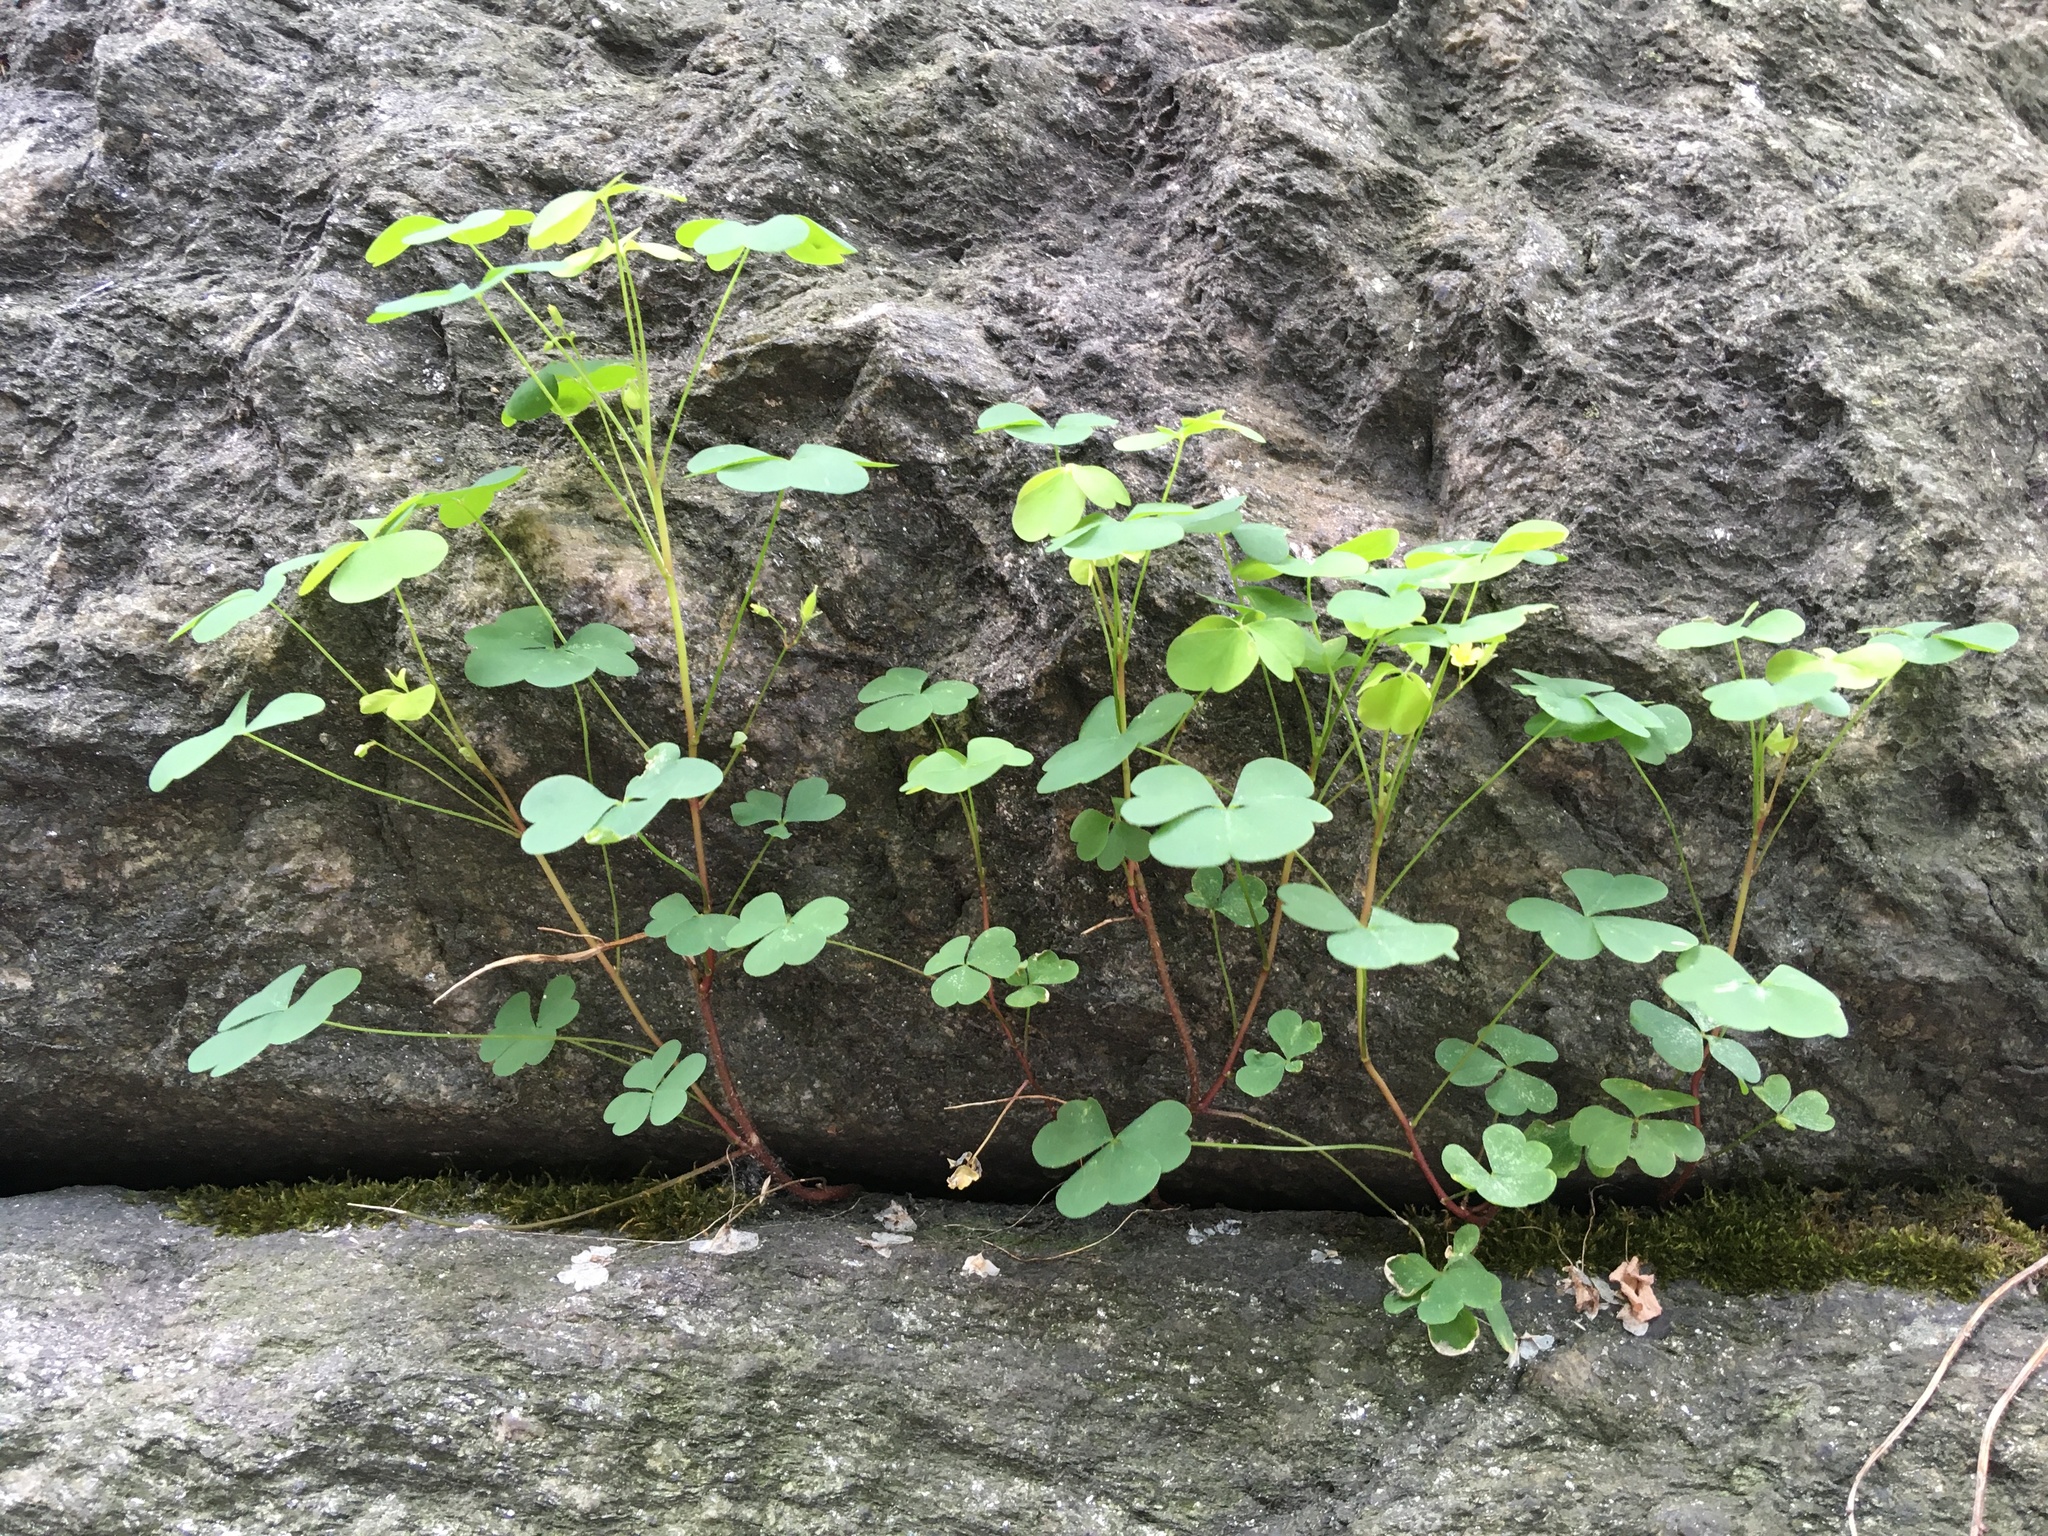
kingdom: Plantae
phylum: Tracheophyta
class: Magnoliopsida
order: Oxalidales
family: Oxalidaceae
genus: Oxalis
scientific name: Oxalis corniculata
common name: Procumbent yellow-sorrel
